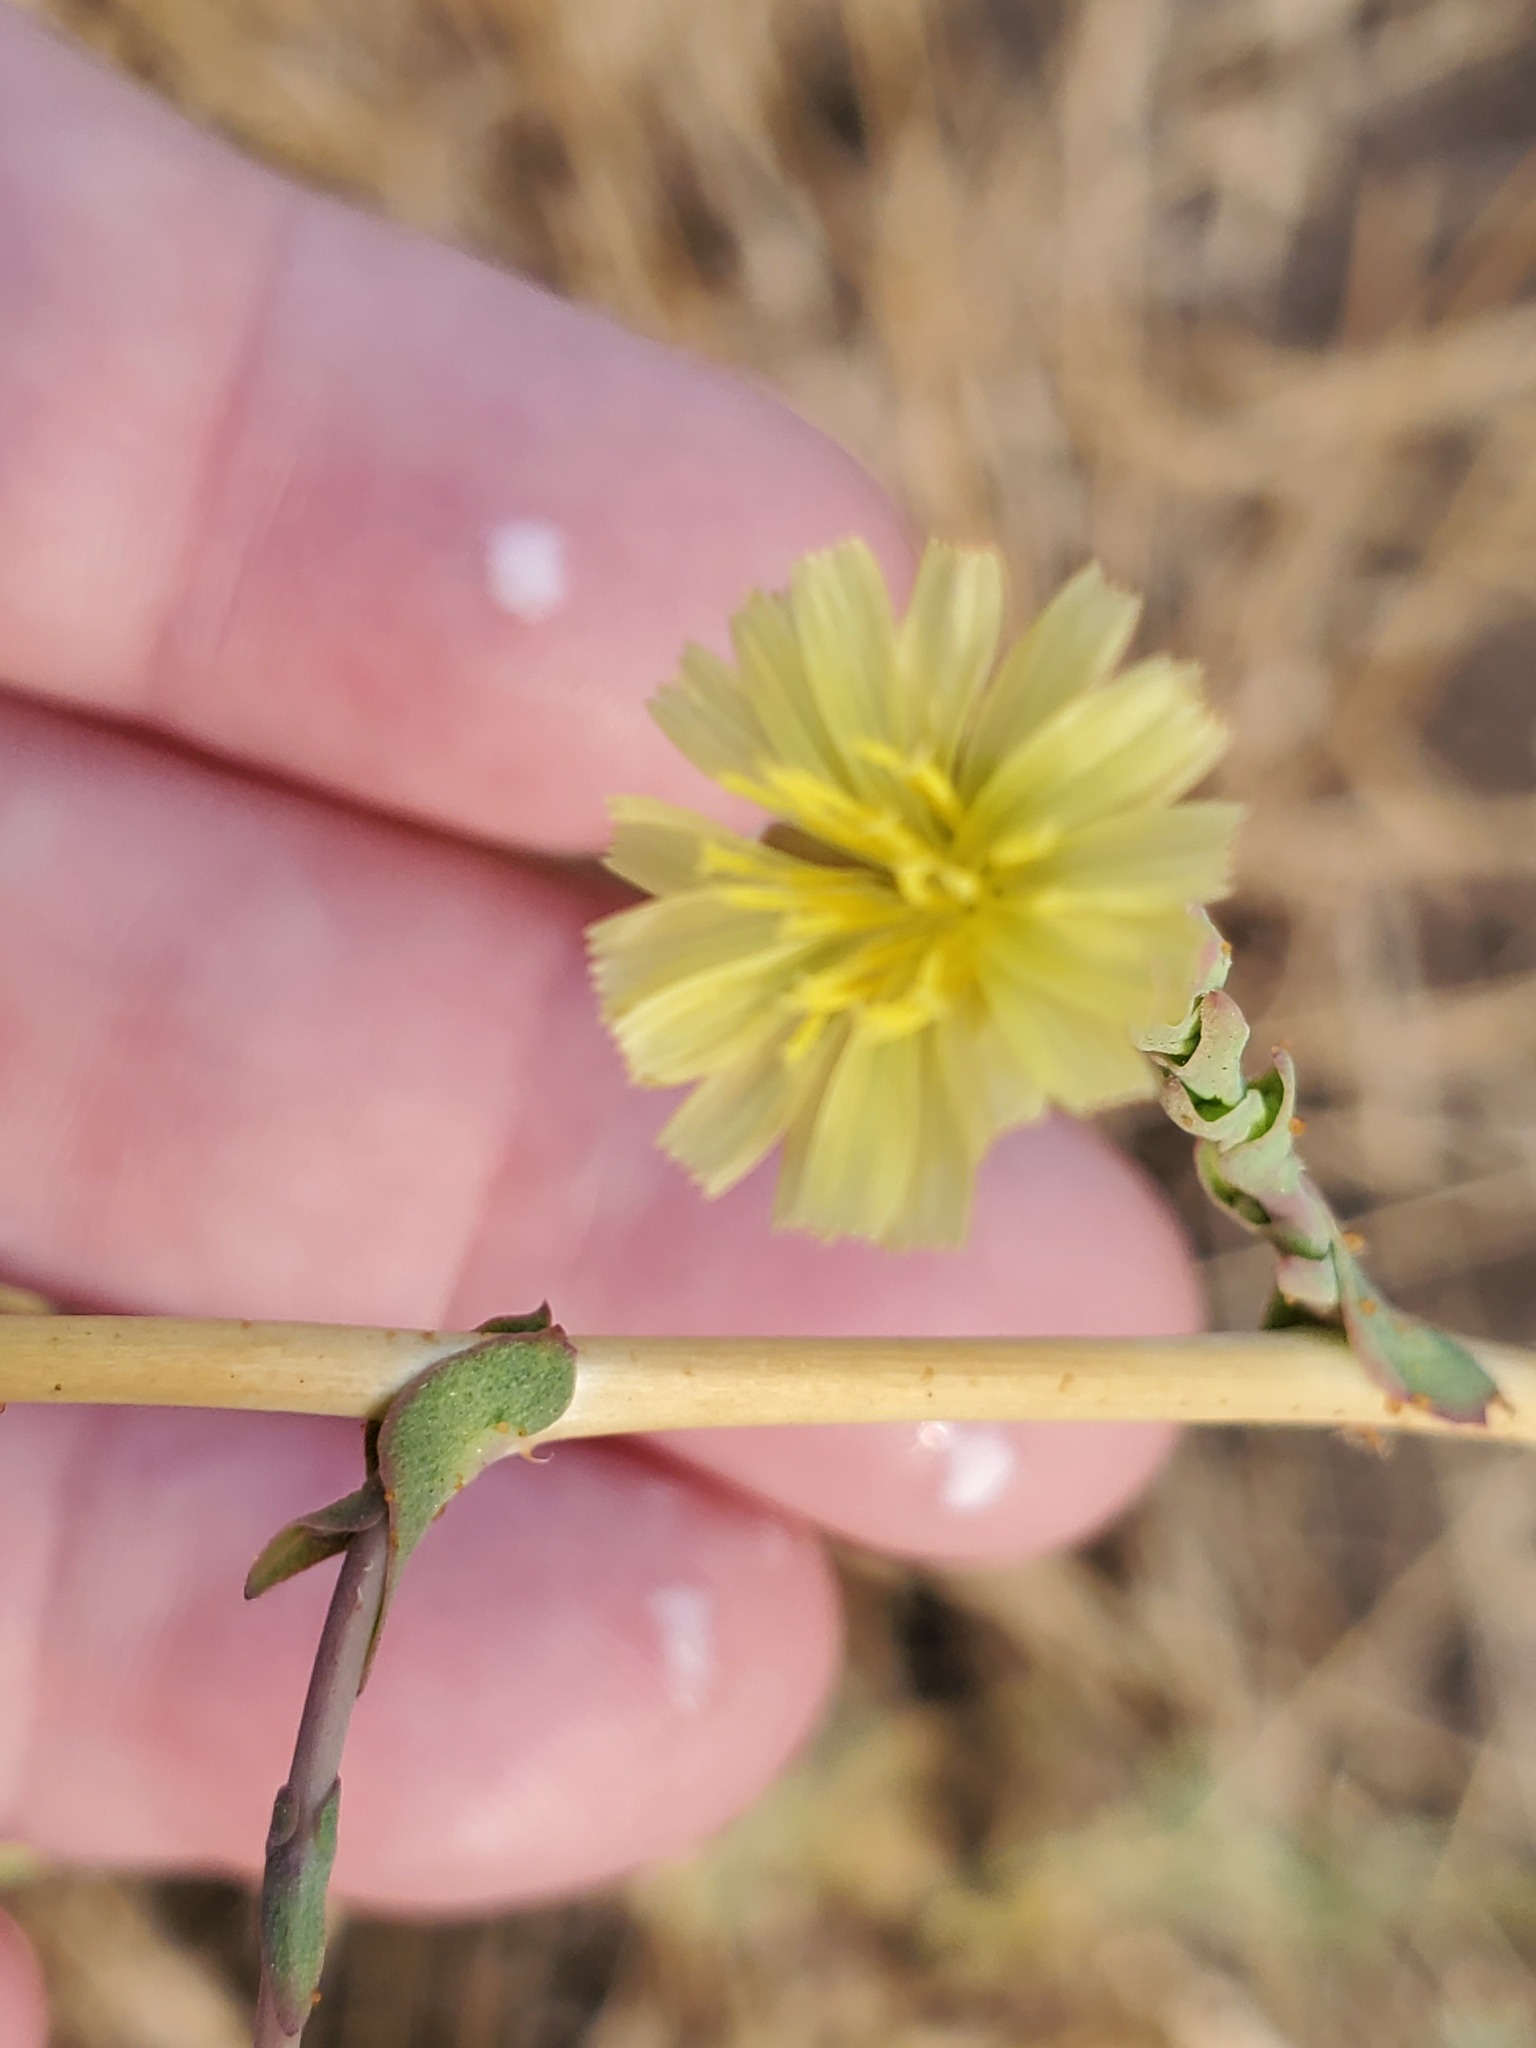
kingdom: Plantae
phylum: Tracheophyta
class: Magnoliopsida
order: Asterales
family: Asteraceae
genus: Lactuca
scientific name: Lactuca serriola
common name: Prickly lettuce
